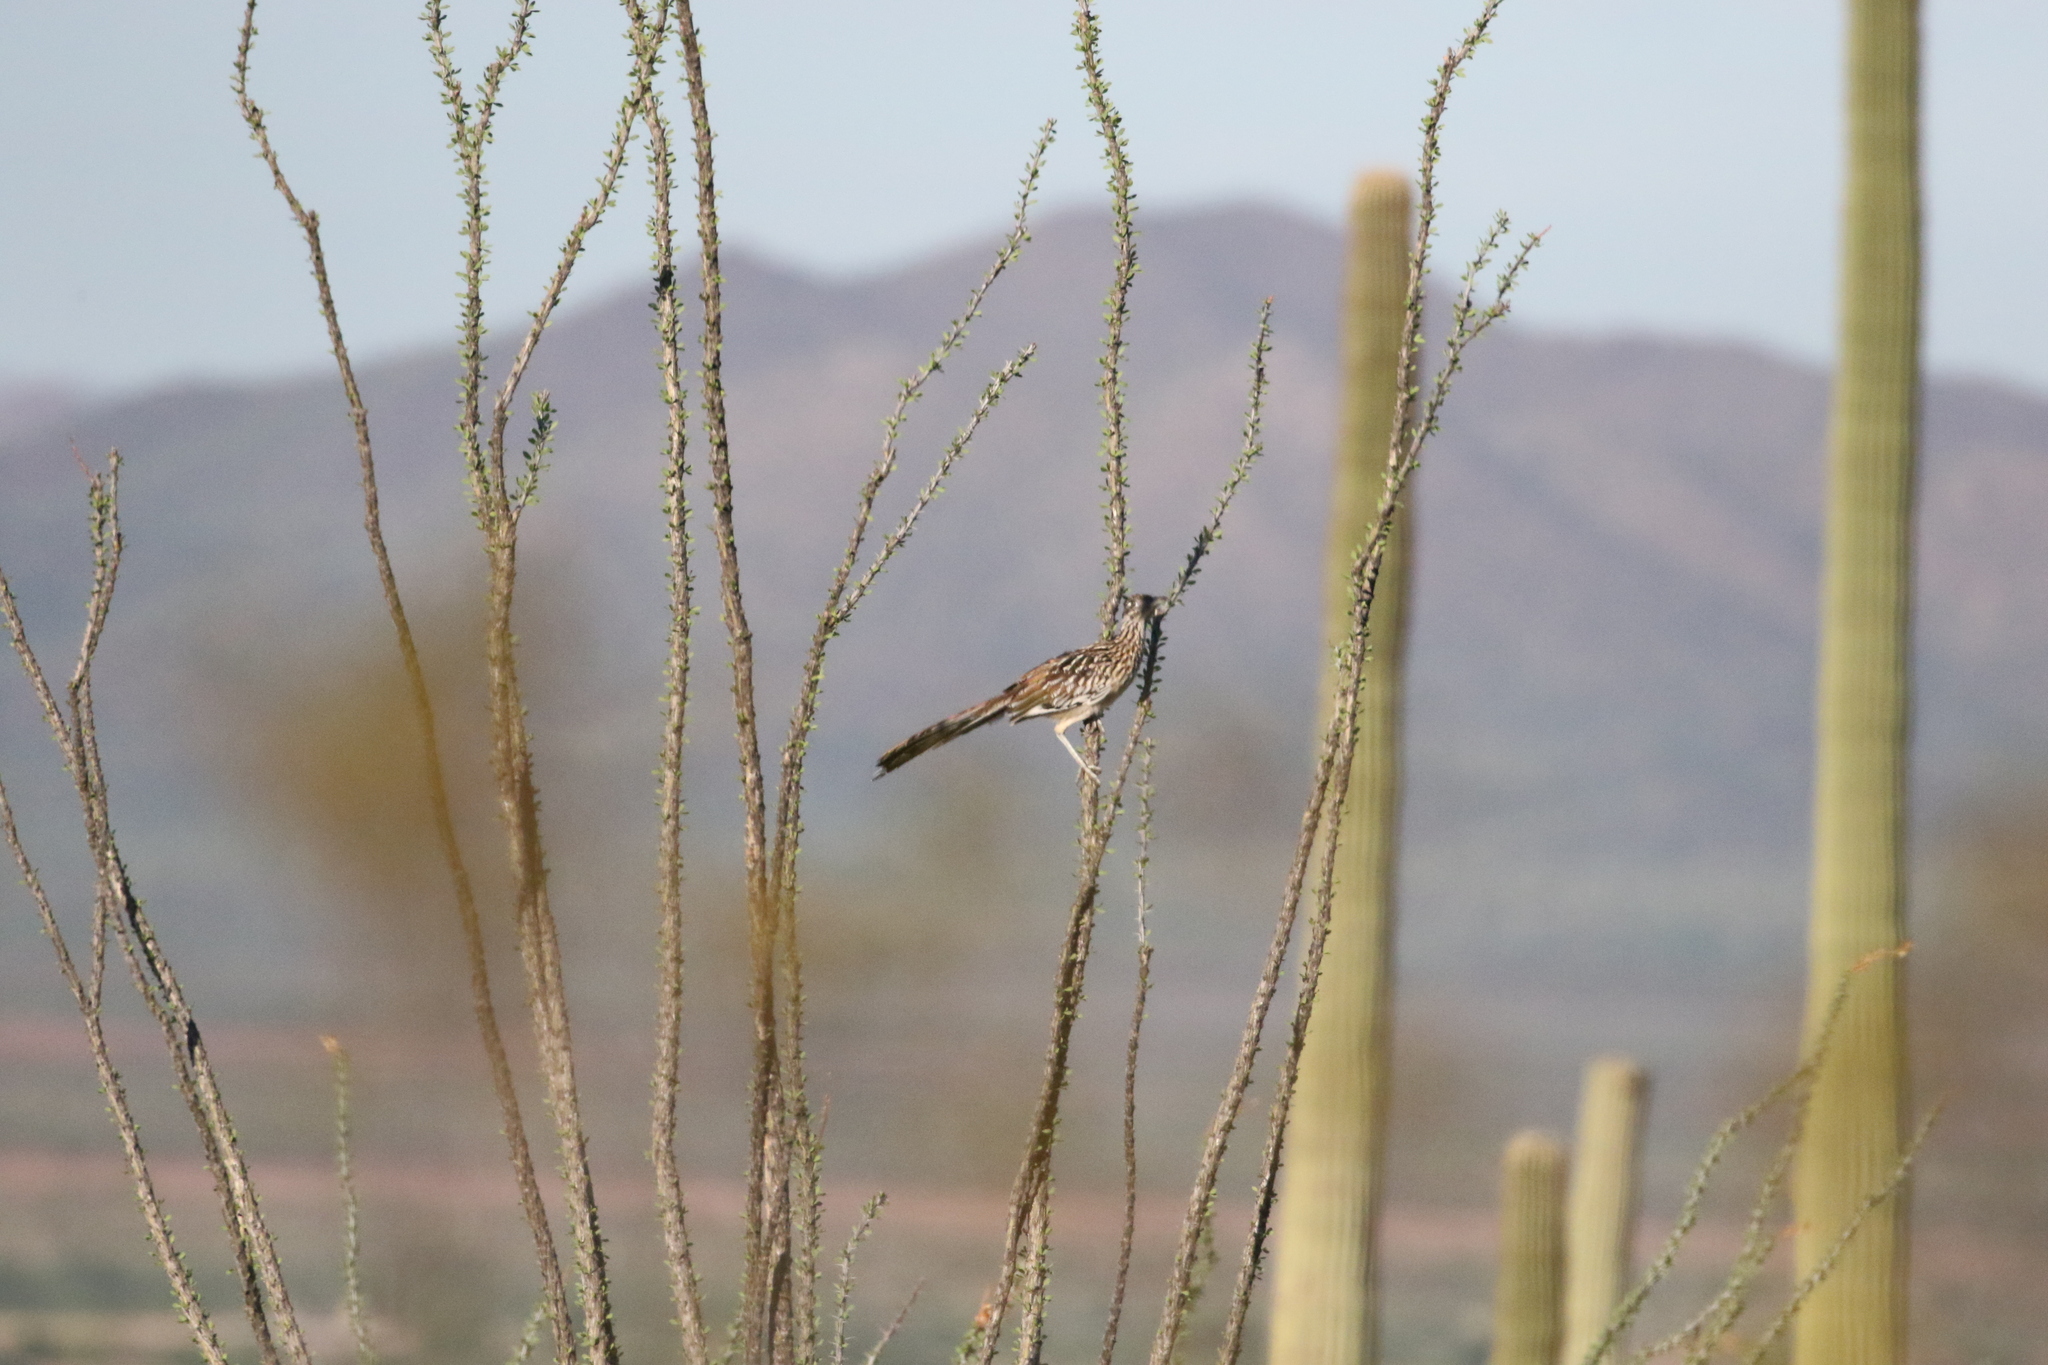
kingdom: Animalia
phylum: Chordata
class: Aves
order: Cuculiformes
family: Cuculidae
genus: Geococcyx
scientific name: Geococcyx californianus
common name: Greater roadrunner
